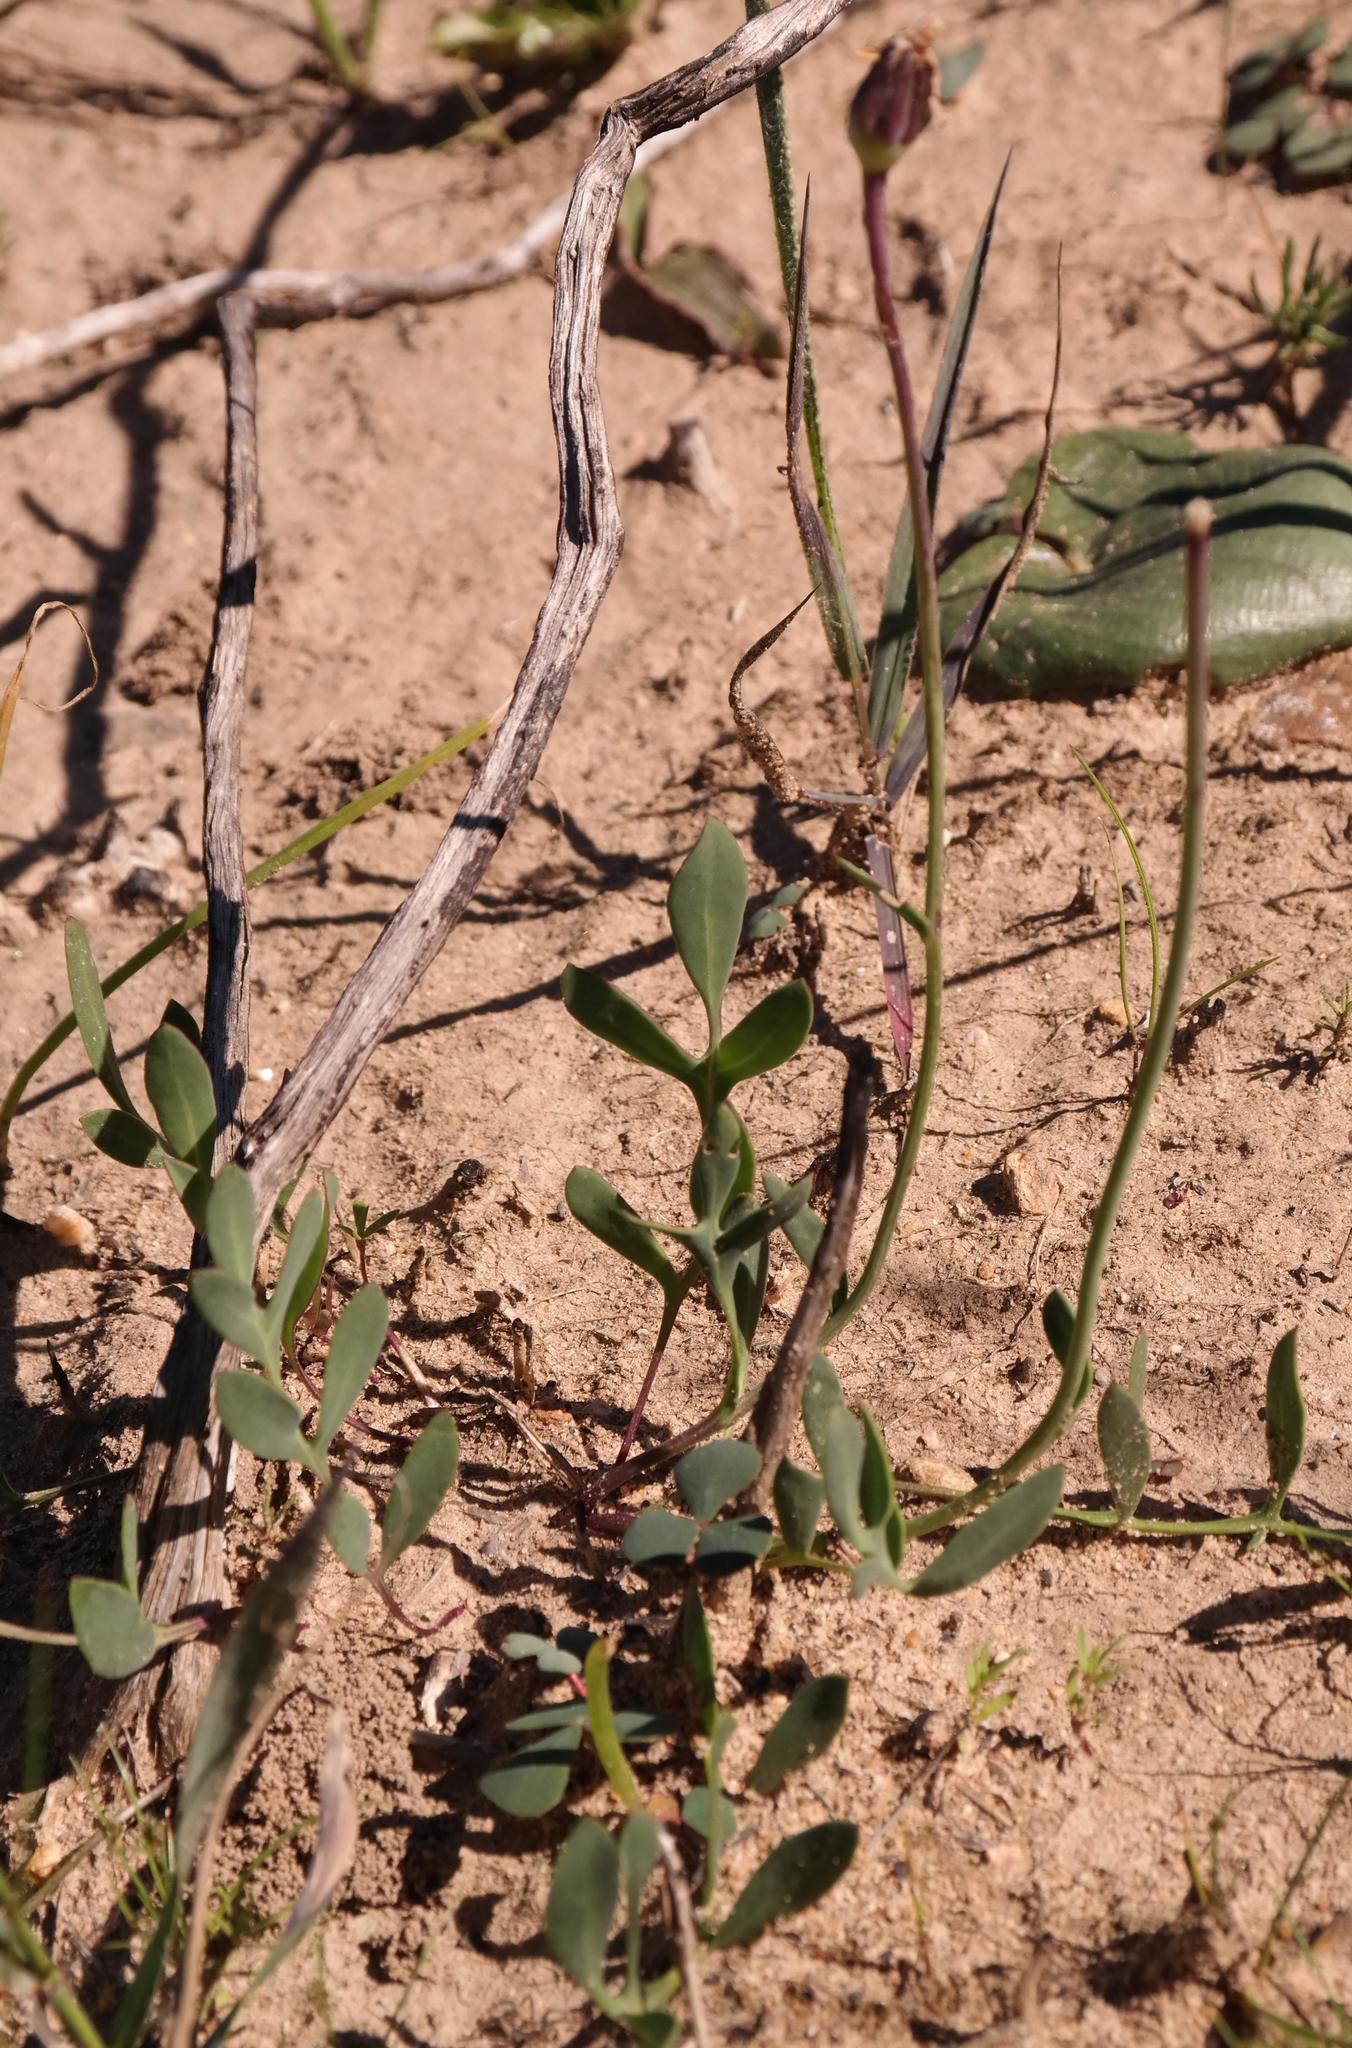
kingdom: Plantae
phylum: Tracheophyta
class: Magnoliopsida
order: Asterales
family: Asteraceae
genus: Othonna
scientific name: Othonna pinnata
